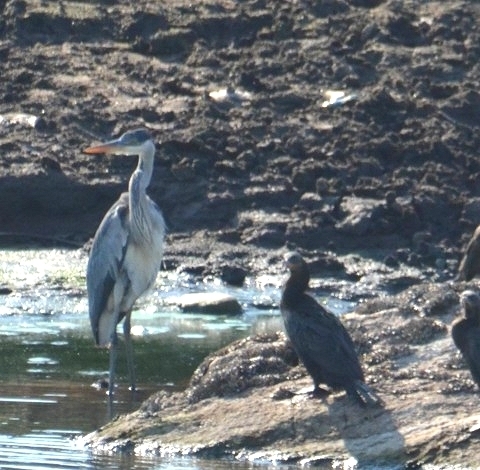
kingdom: Animalia
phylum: Chordata
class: Aves
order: Pelecaniformes
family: Ardeidae
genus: Ardea
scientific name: Ardea cocoi
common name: Cocoi heron
